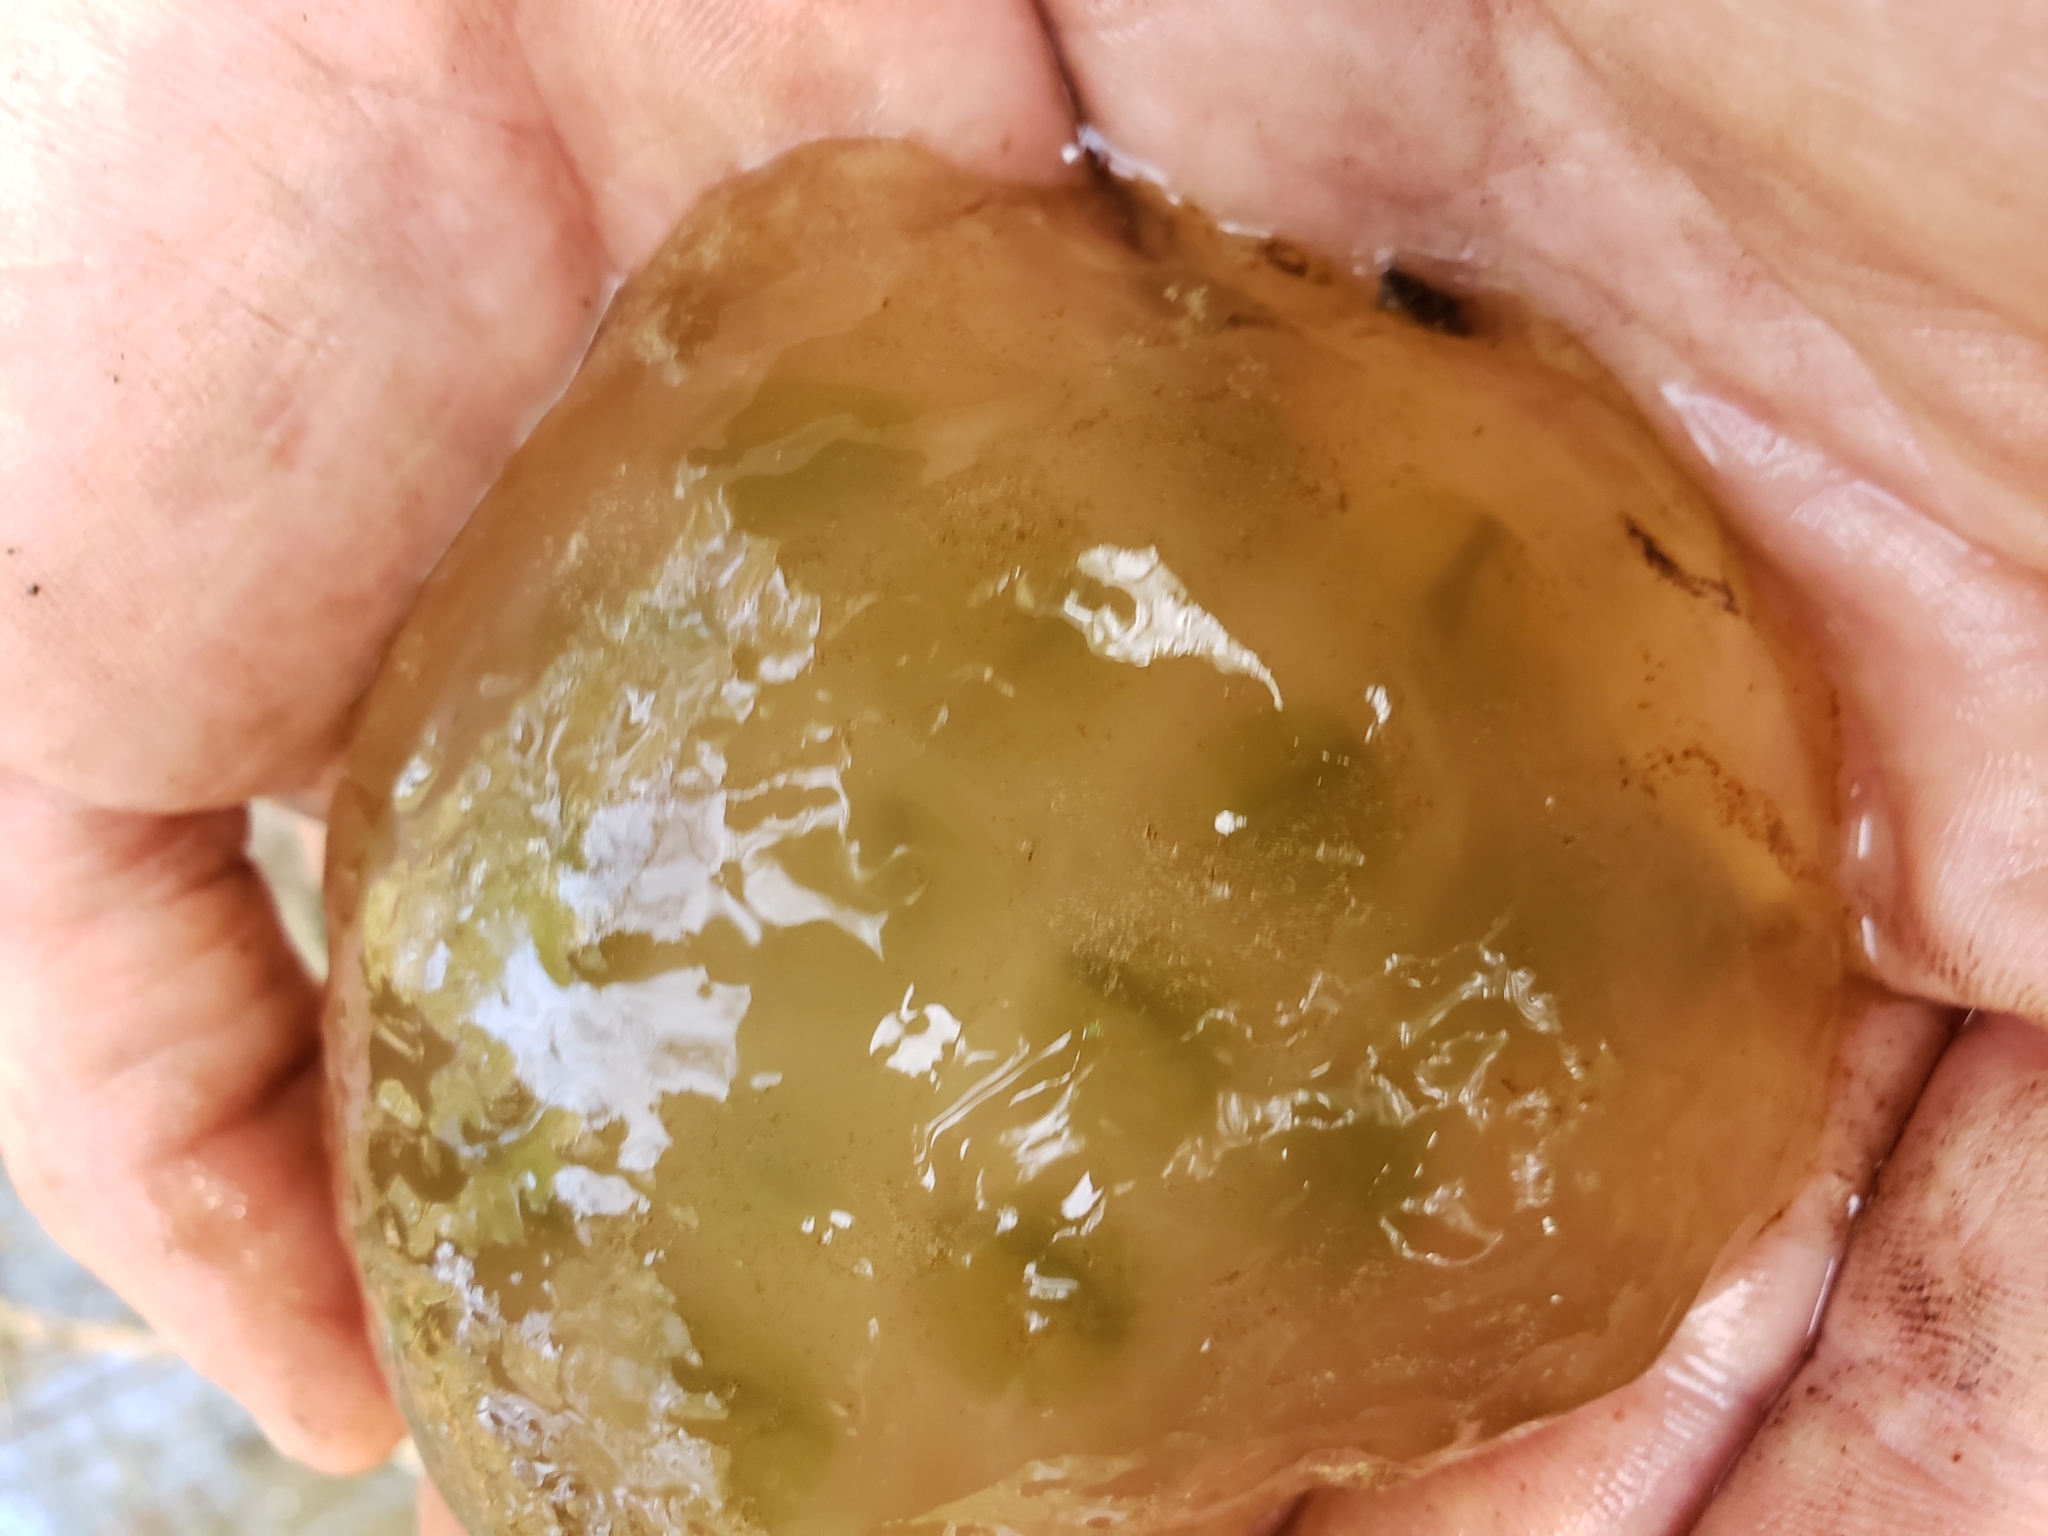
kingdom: Animalia
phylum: Chordata
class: Amphibia
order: Caudata
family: Ambystomatidae
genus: Ambystoma
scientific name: Ambystoma maculatum
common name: Spotted salamander
